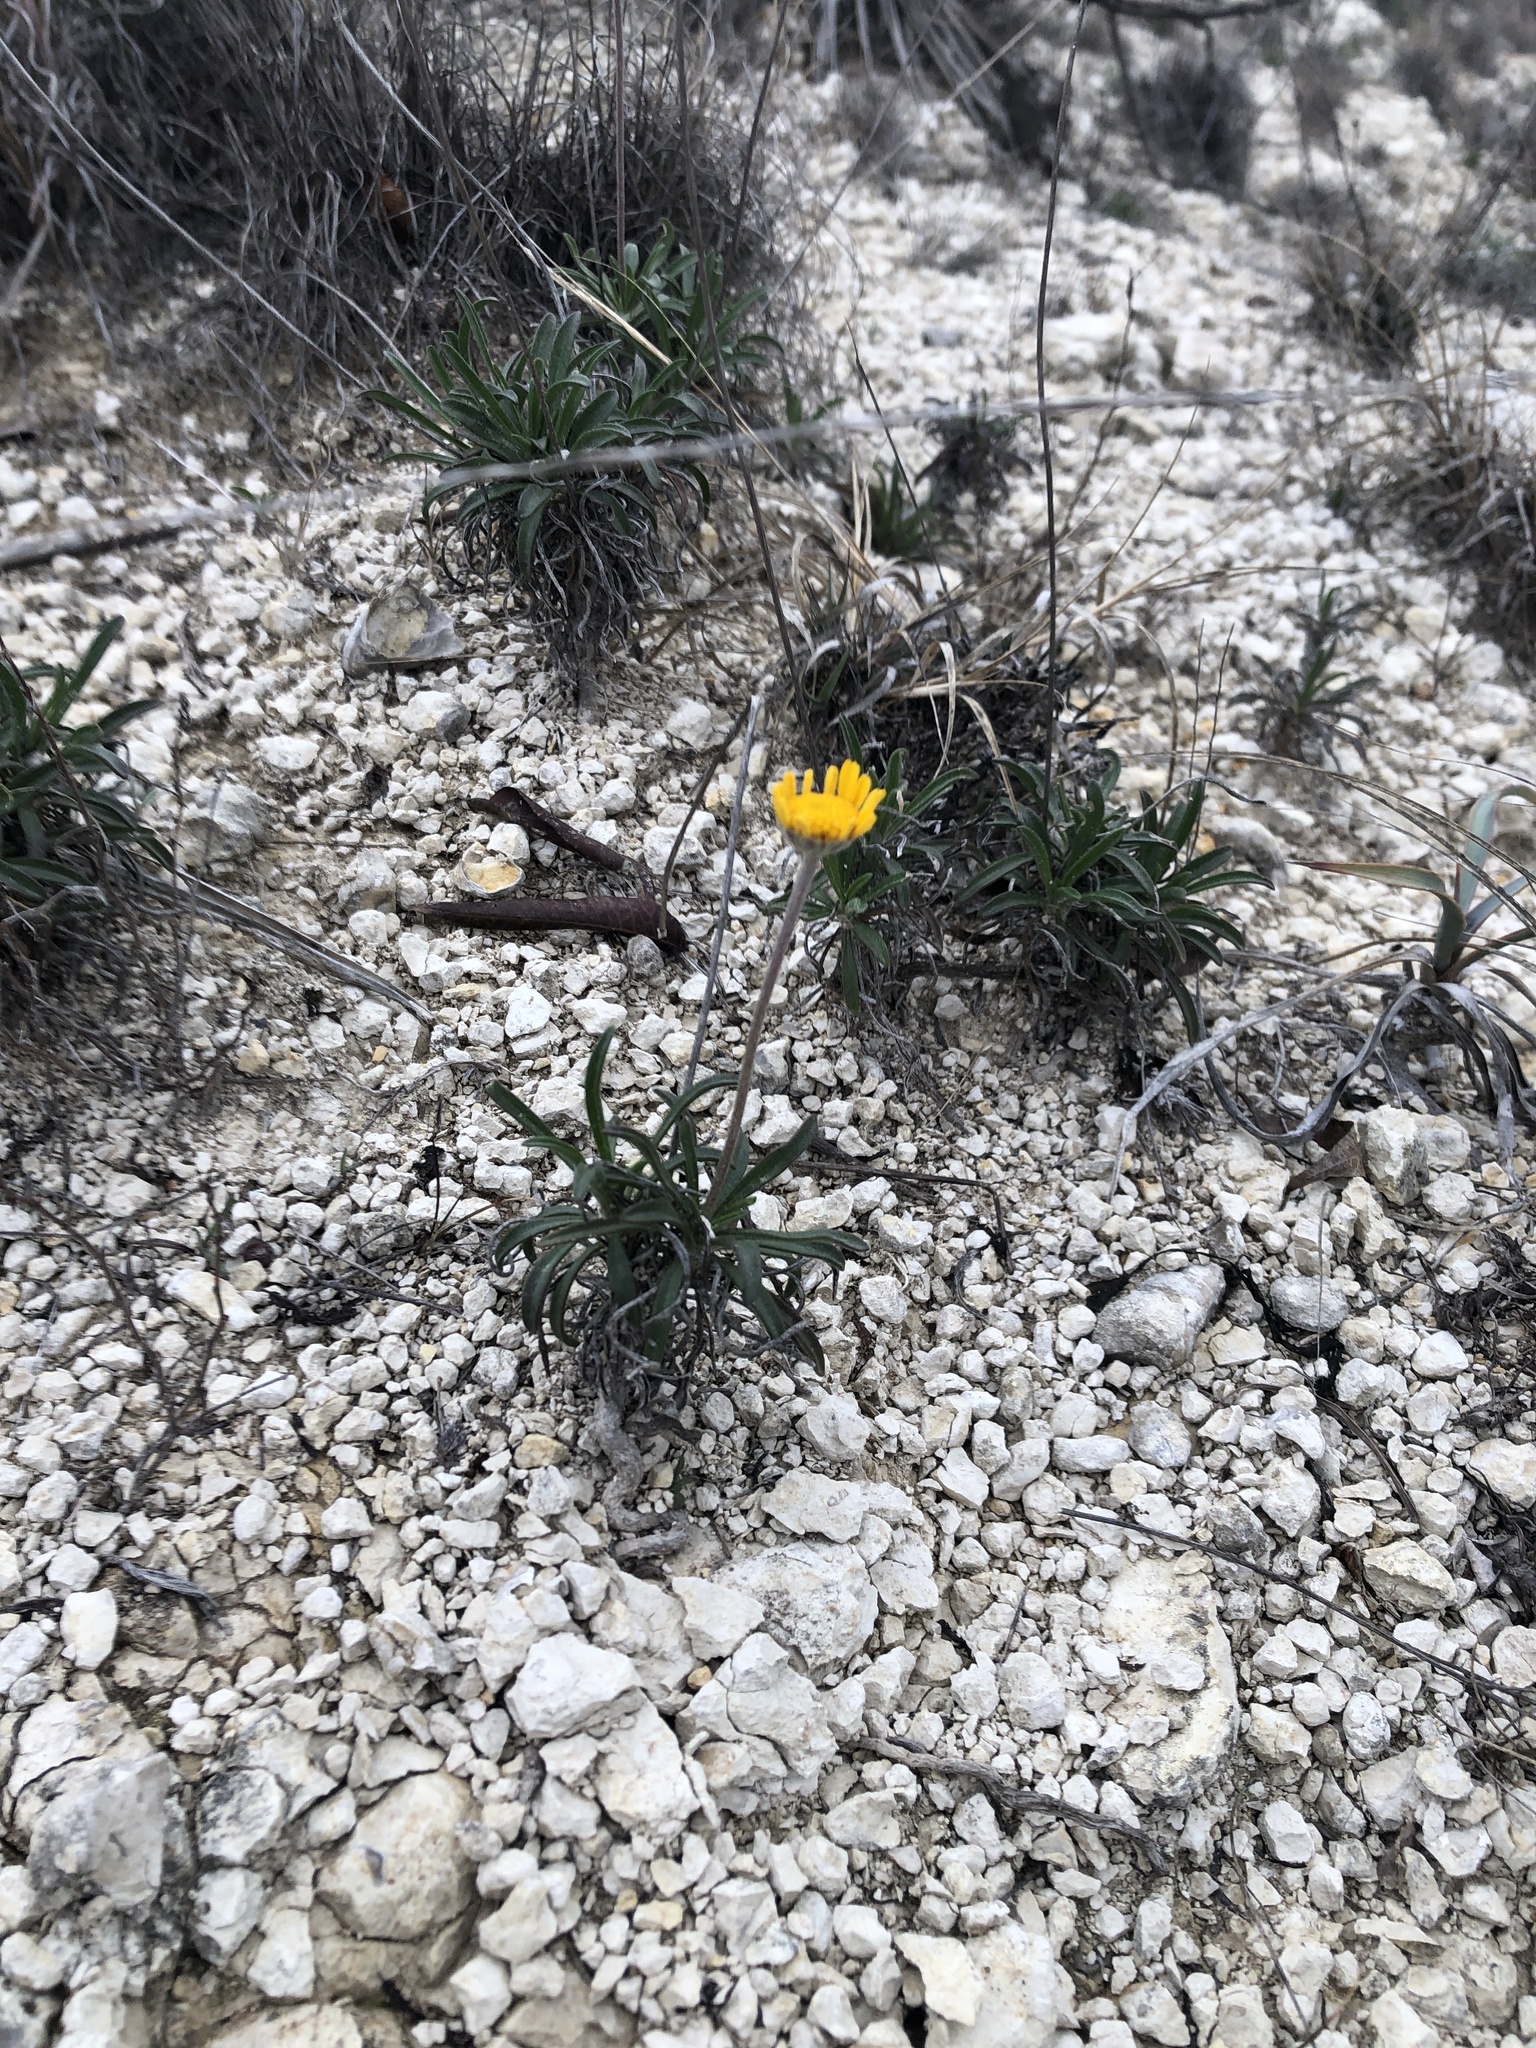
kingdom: Plantae
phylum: Tracheophyta
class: Magnoliopsida
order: Asterales
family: Asteraceae
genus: Tetraneuris
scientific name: Tetraneuris scaposa
